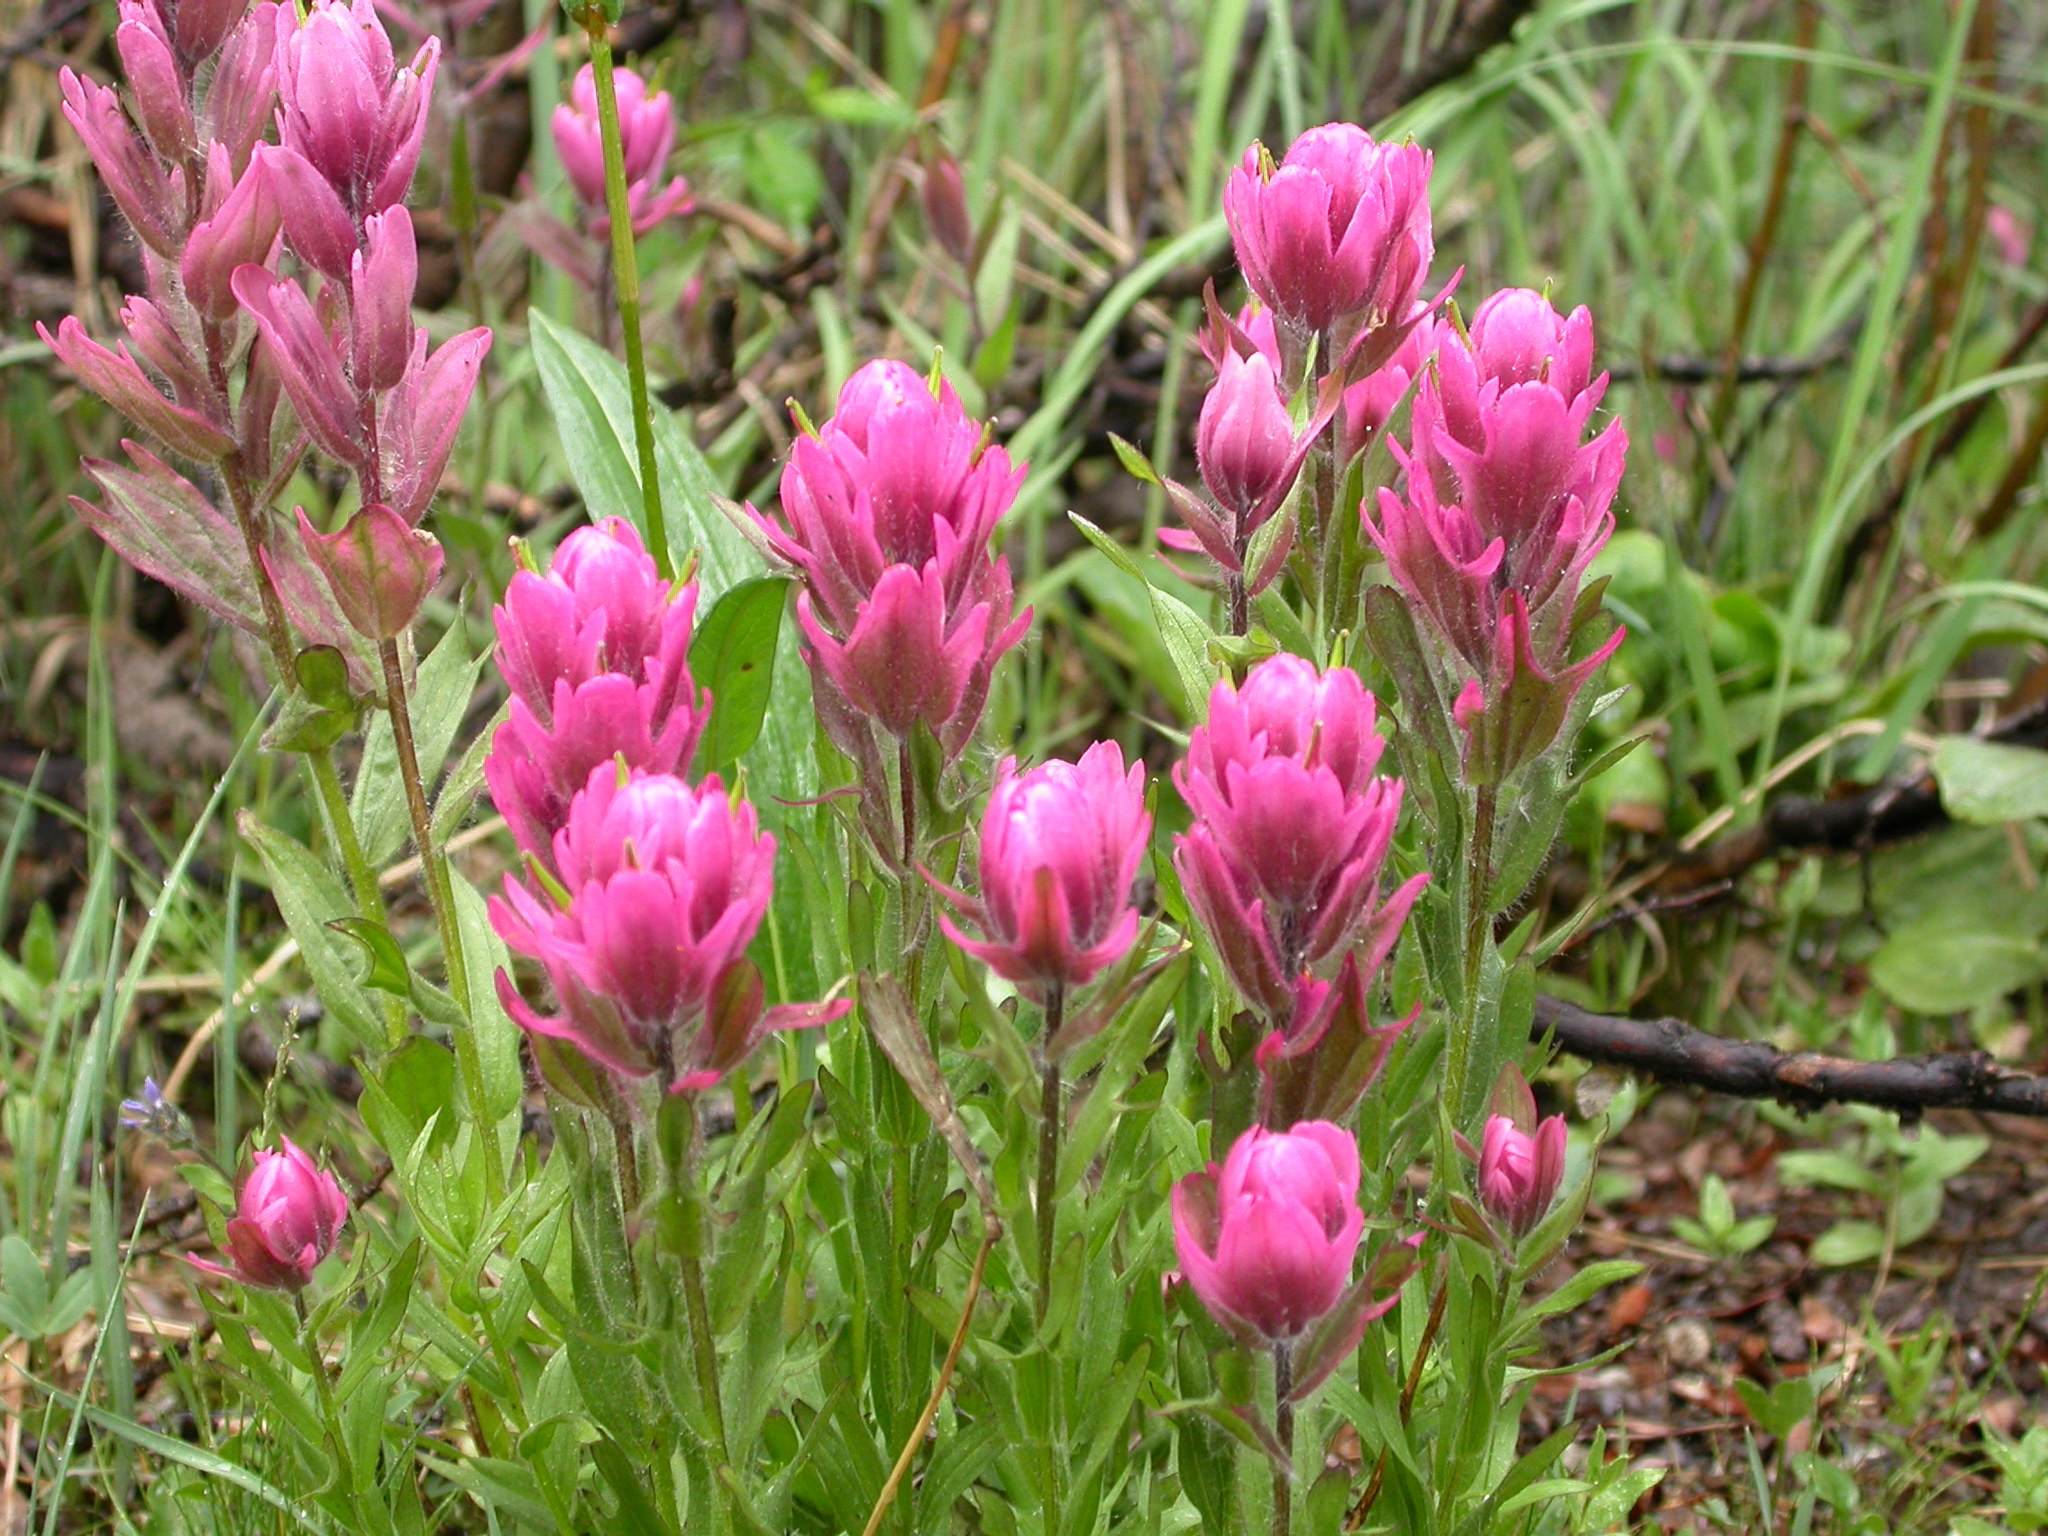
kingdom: Plantae
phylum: Tracheophyta
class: Magnoliopsida
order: Lamiales
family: Orobanchaceae
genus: Castilleja
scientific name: Castilleja rhexifolia
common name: Rocky mountain paintbrush
